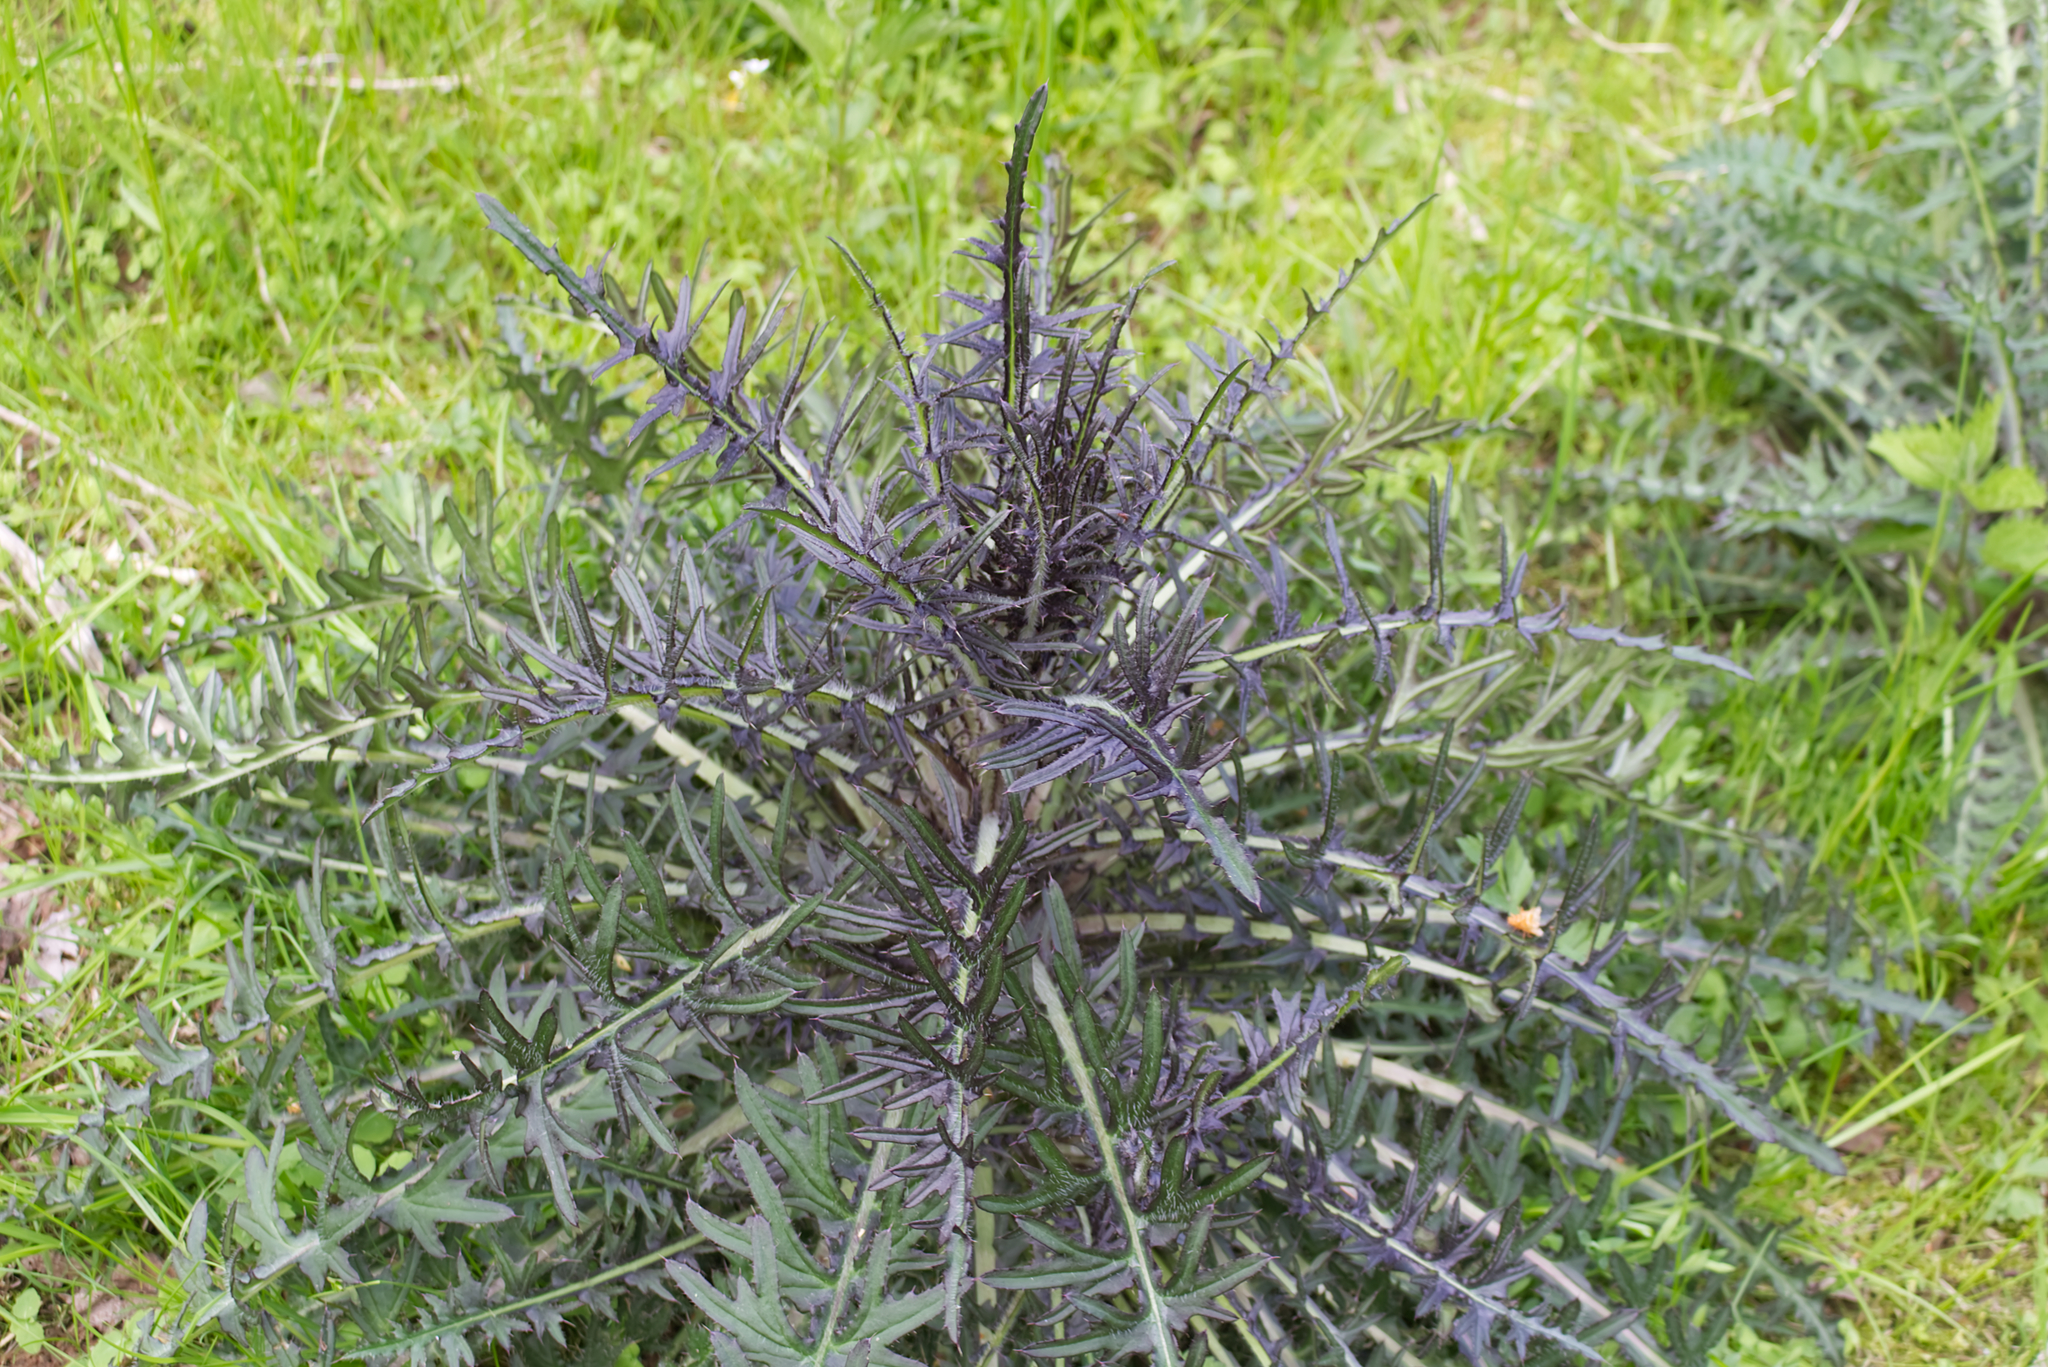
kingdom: Plantae
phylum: Tracheophyta
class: Magnoliopsida
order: Asterales
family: Asteraceae
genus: Cirsium
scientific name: Cirsium palustre
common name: Marsh thistle
